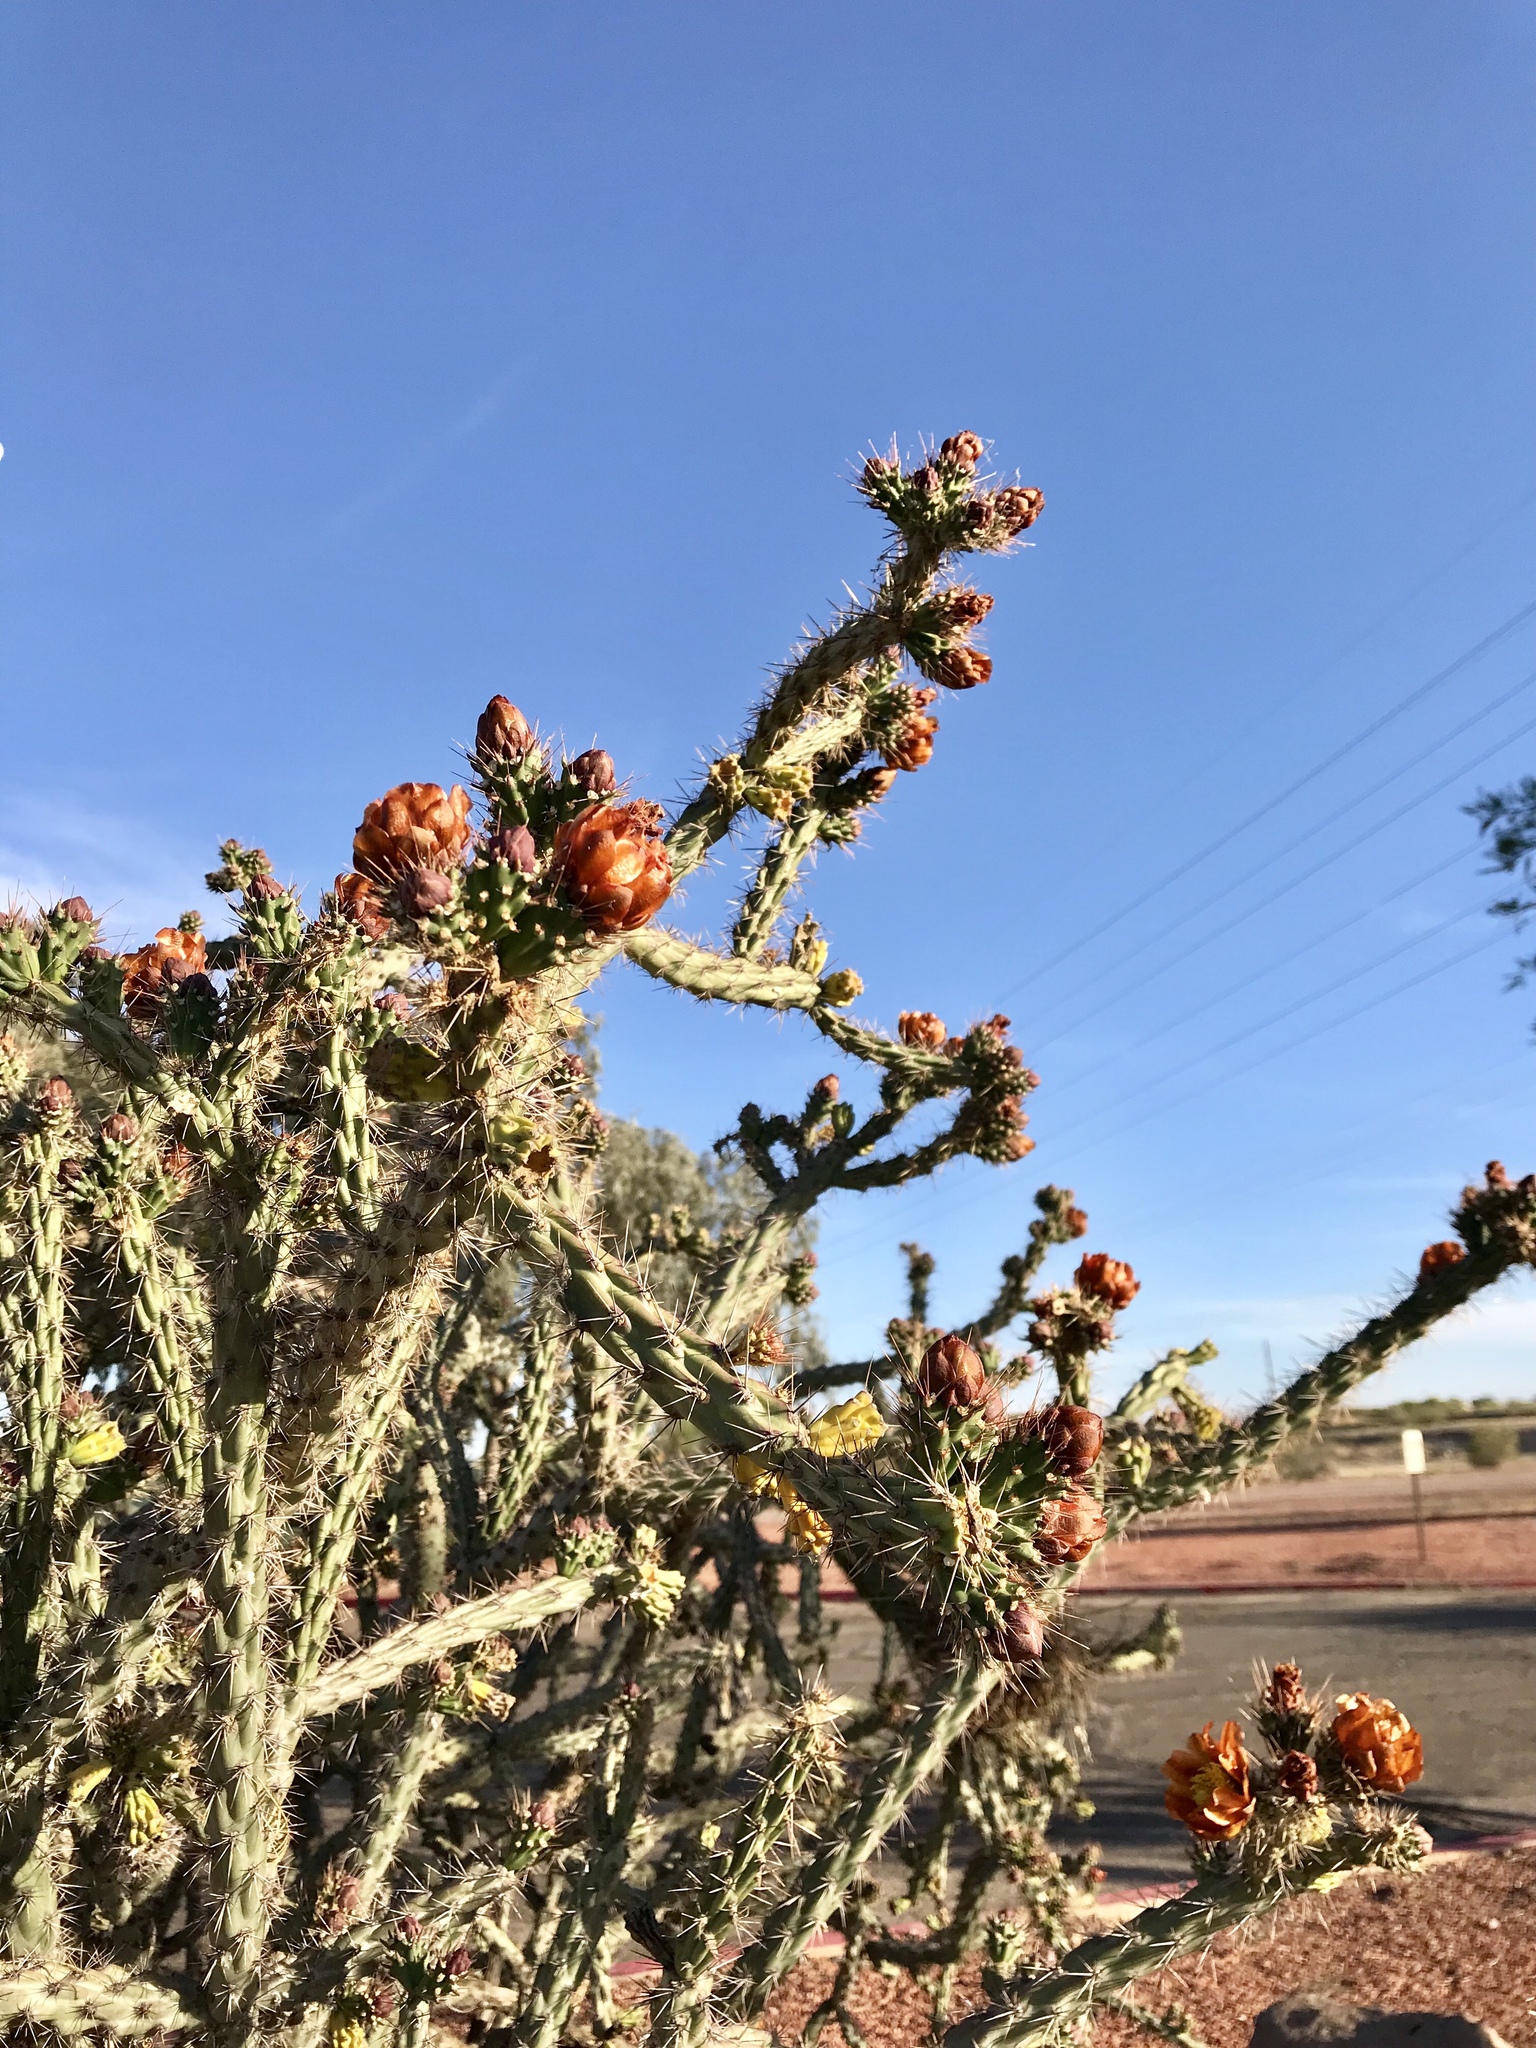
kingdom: Plantae
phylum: Tracheophyta
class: Magnoliopsida
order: Caryophyllales
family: Cactaceae
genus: Cylindropuntia
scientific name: Cylindropuntia thurberi
